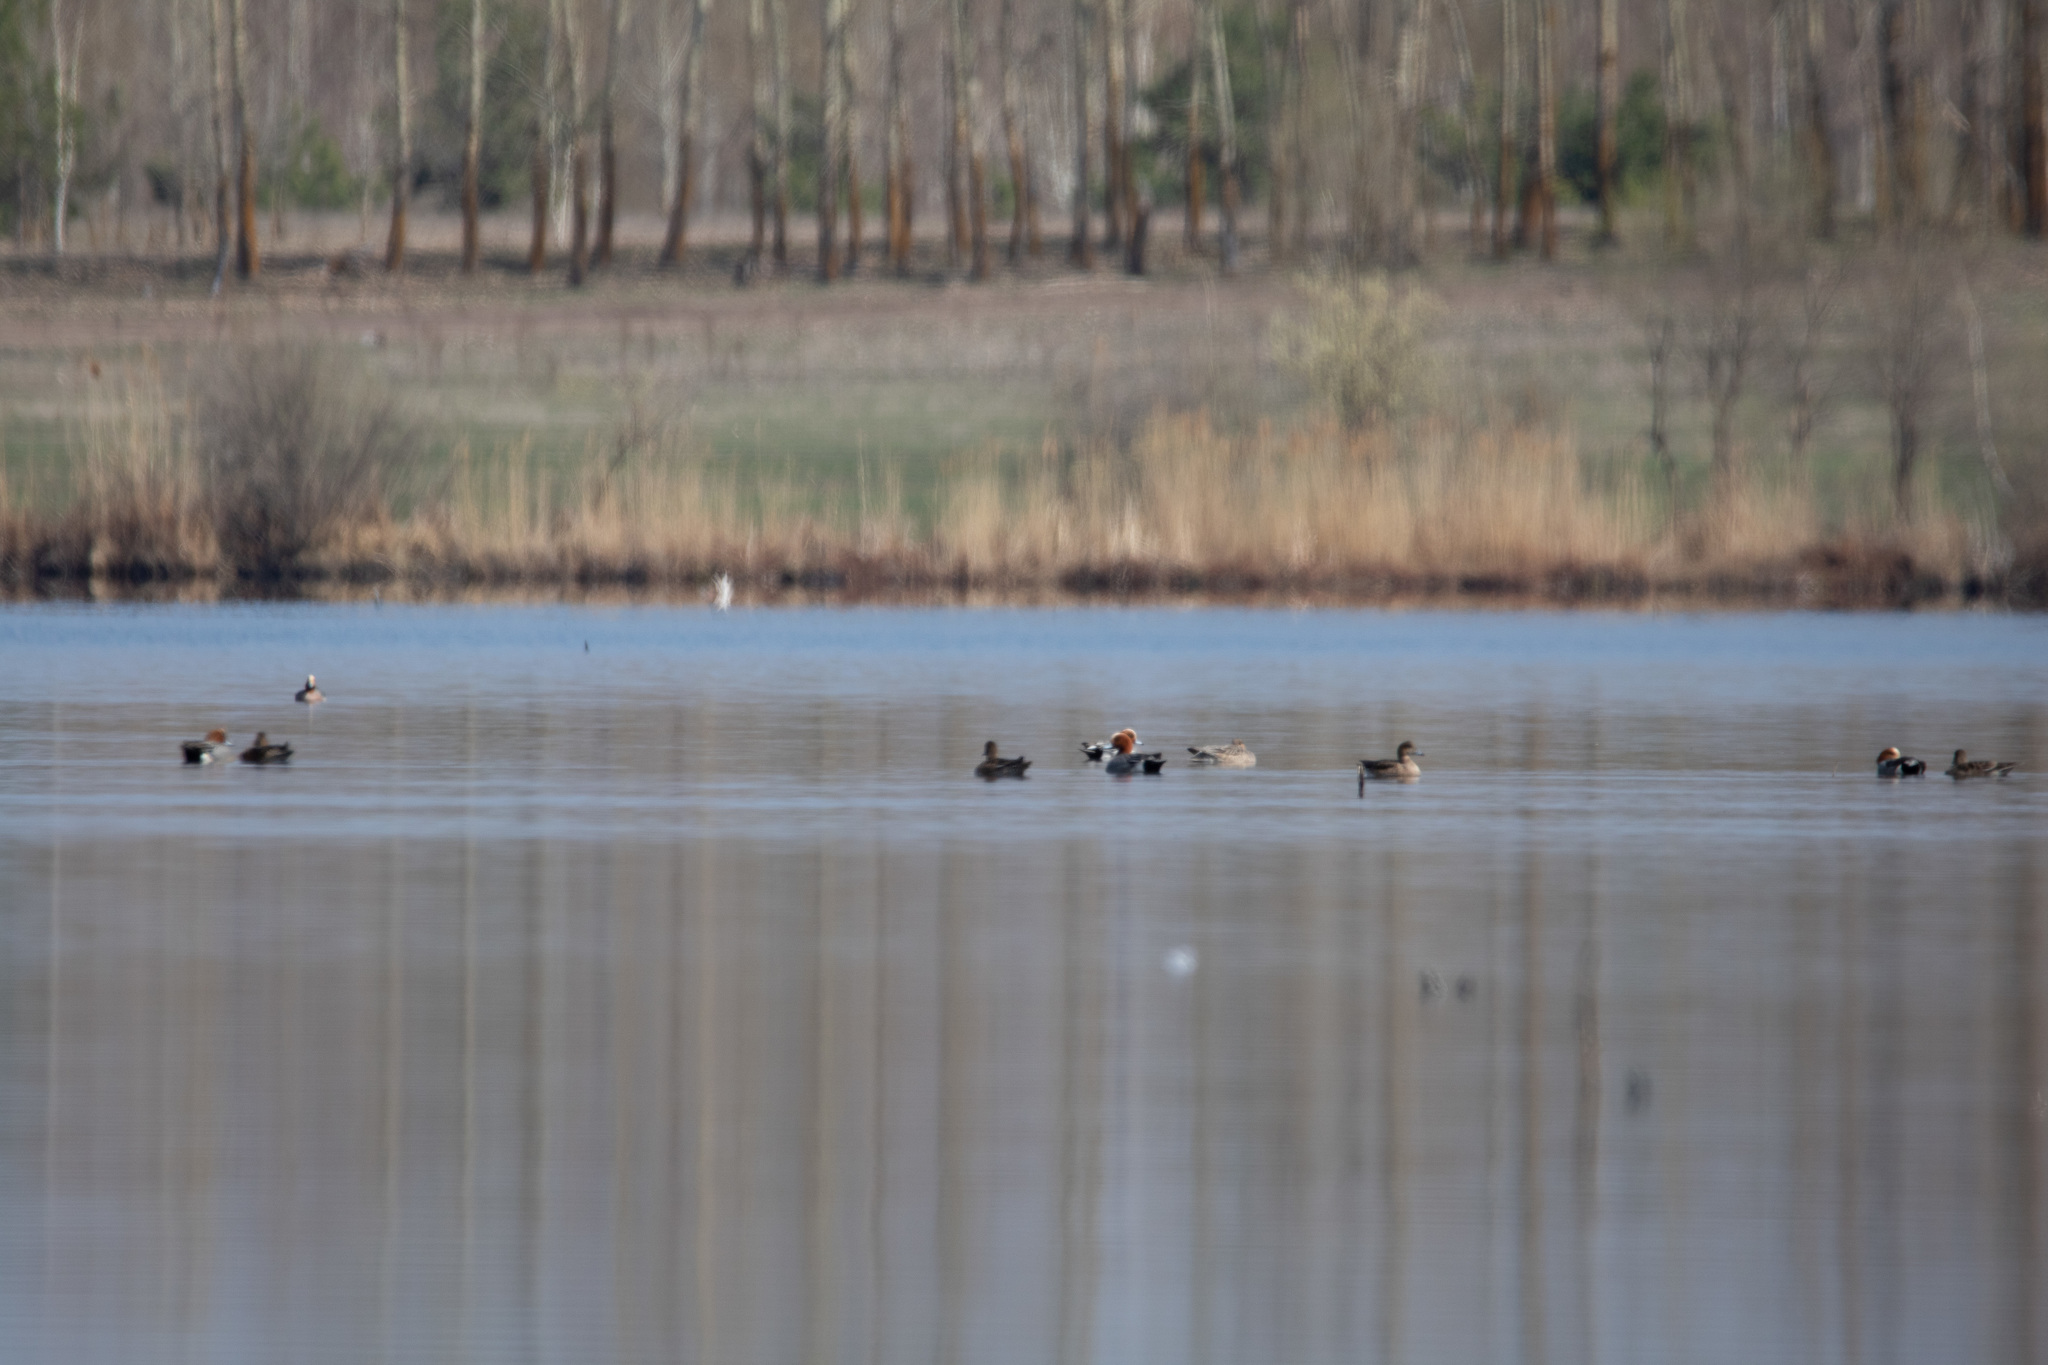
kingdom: Animalia
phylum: Chordata
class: Aves
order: Anseriformes
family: Anatidae
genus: Mareca
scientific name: Mareca penelope
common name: Eurasian wigeon
